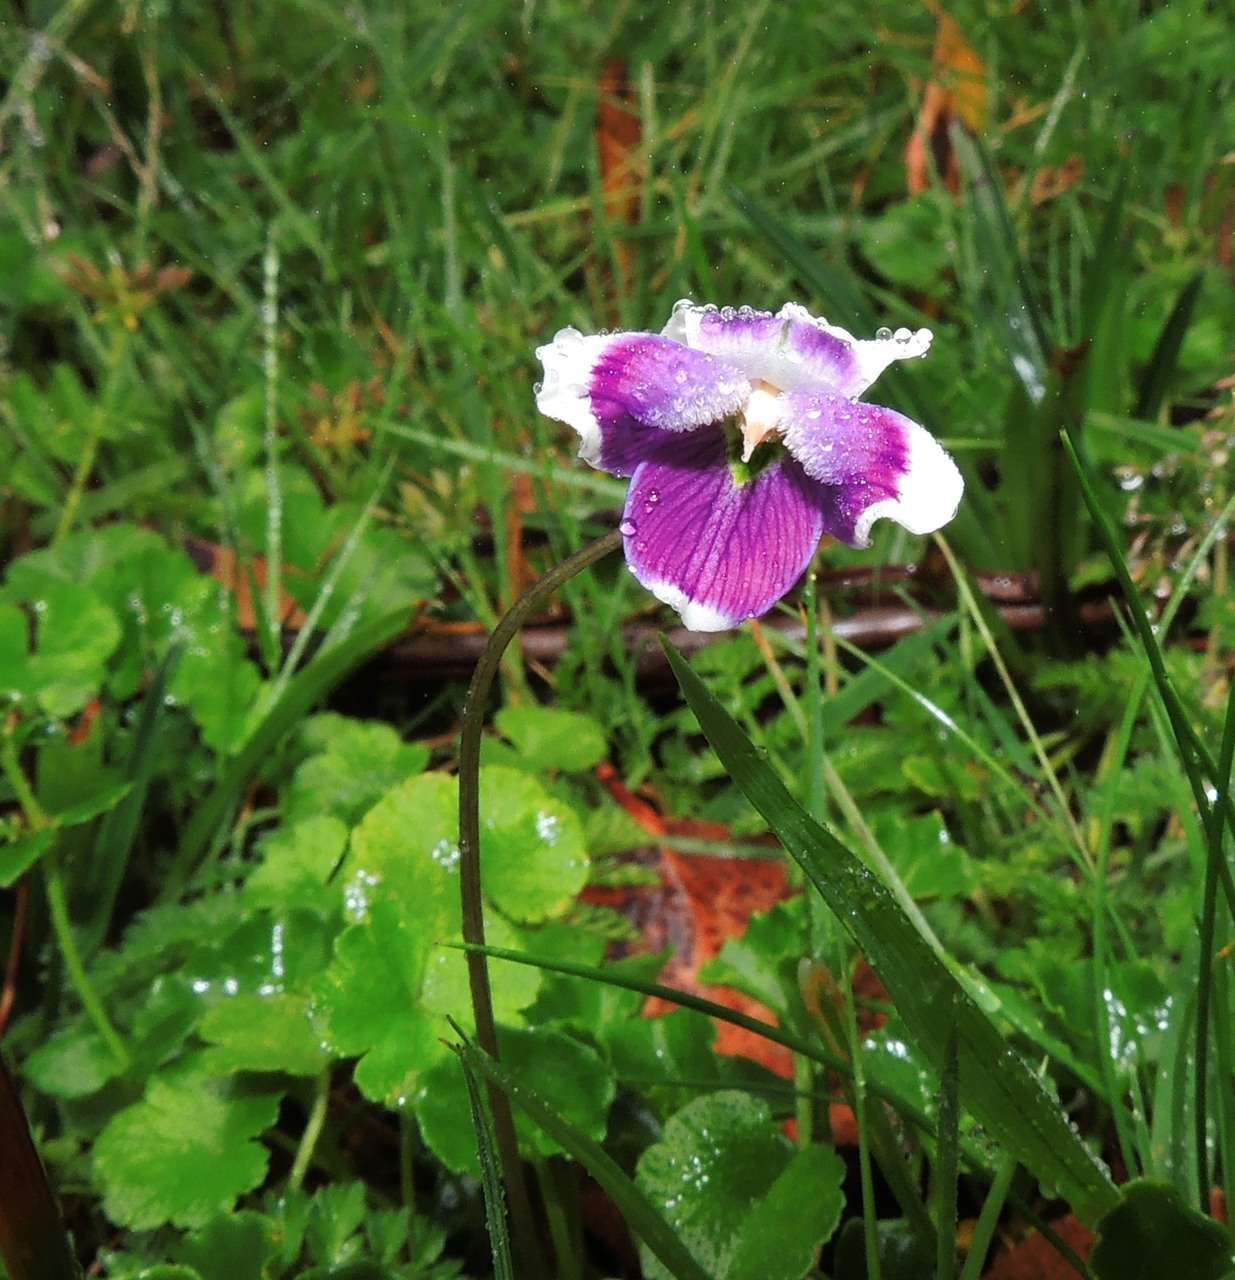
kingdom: Plantae
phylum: Tracheophyta
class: Magnoliopsida
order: Malpighiales
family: Violaceae
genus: Viola
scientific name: Viola eminens
